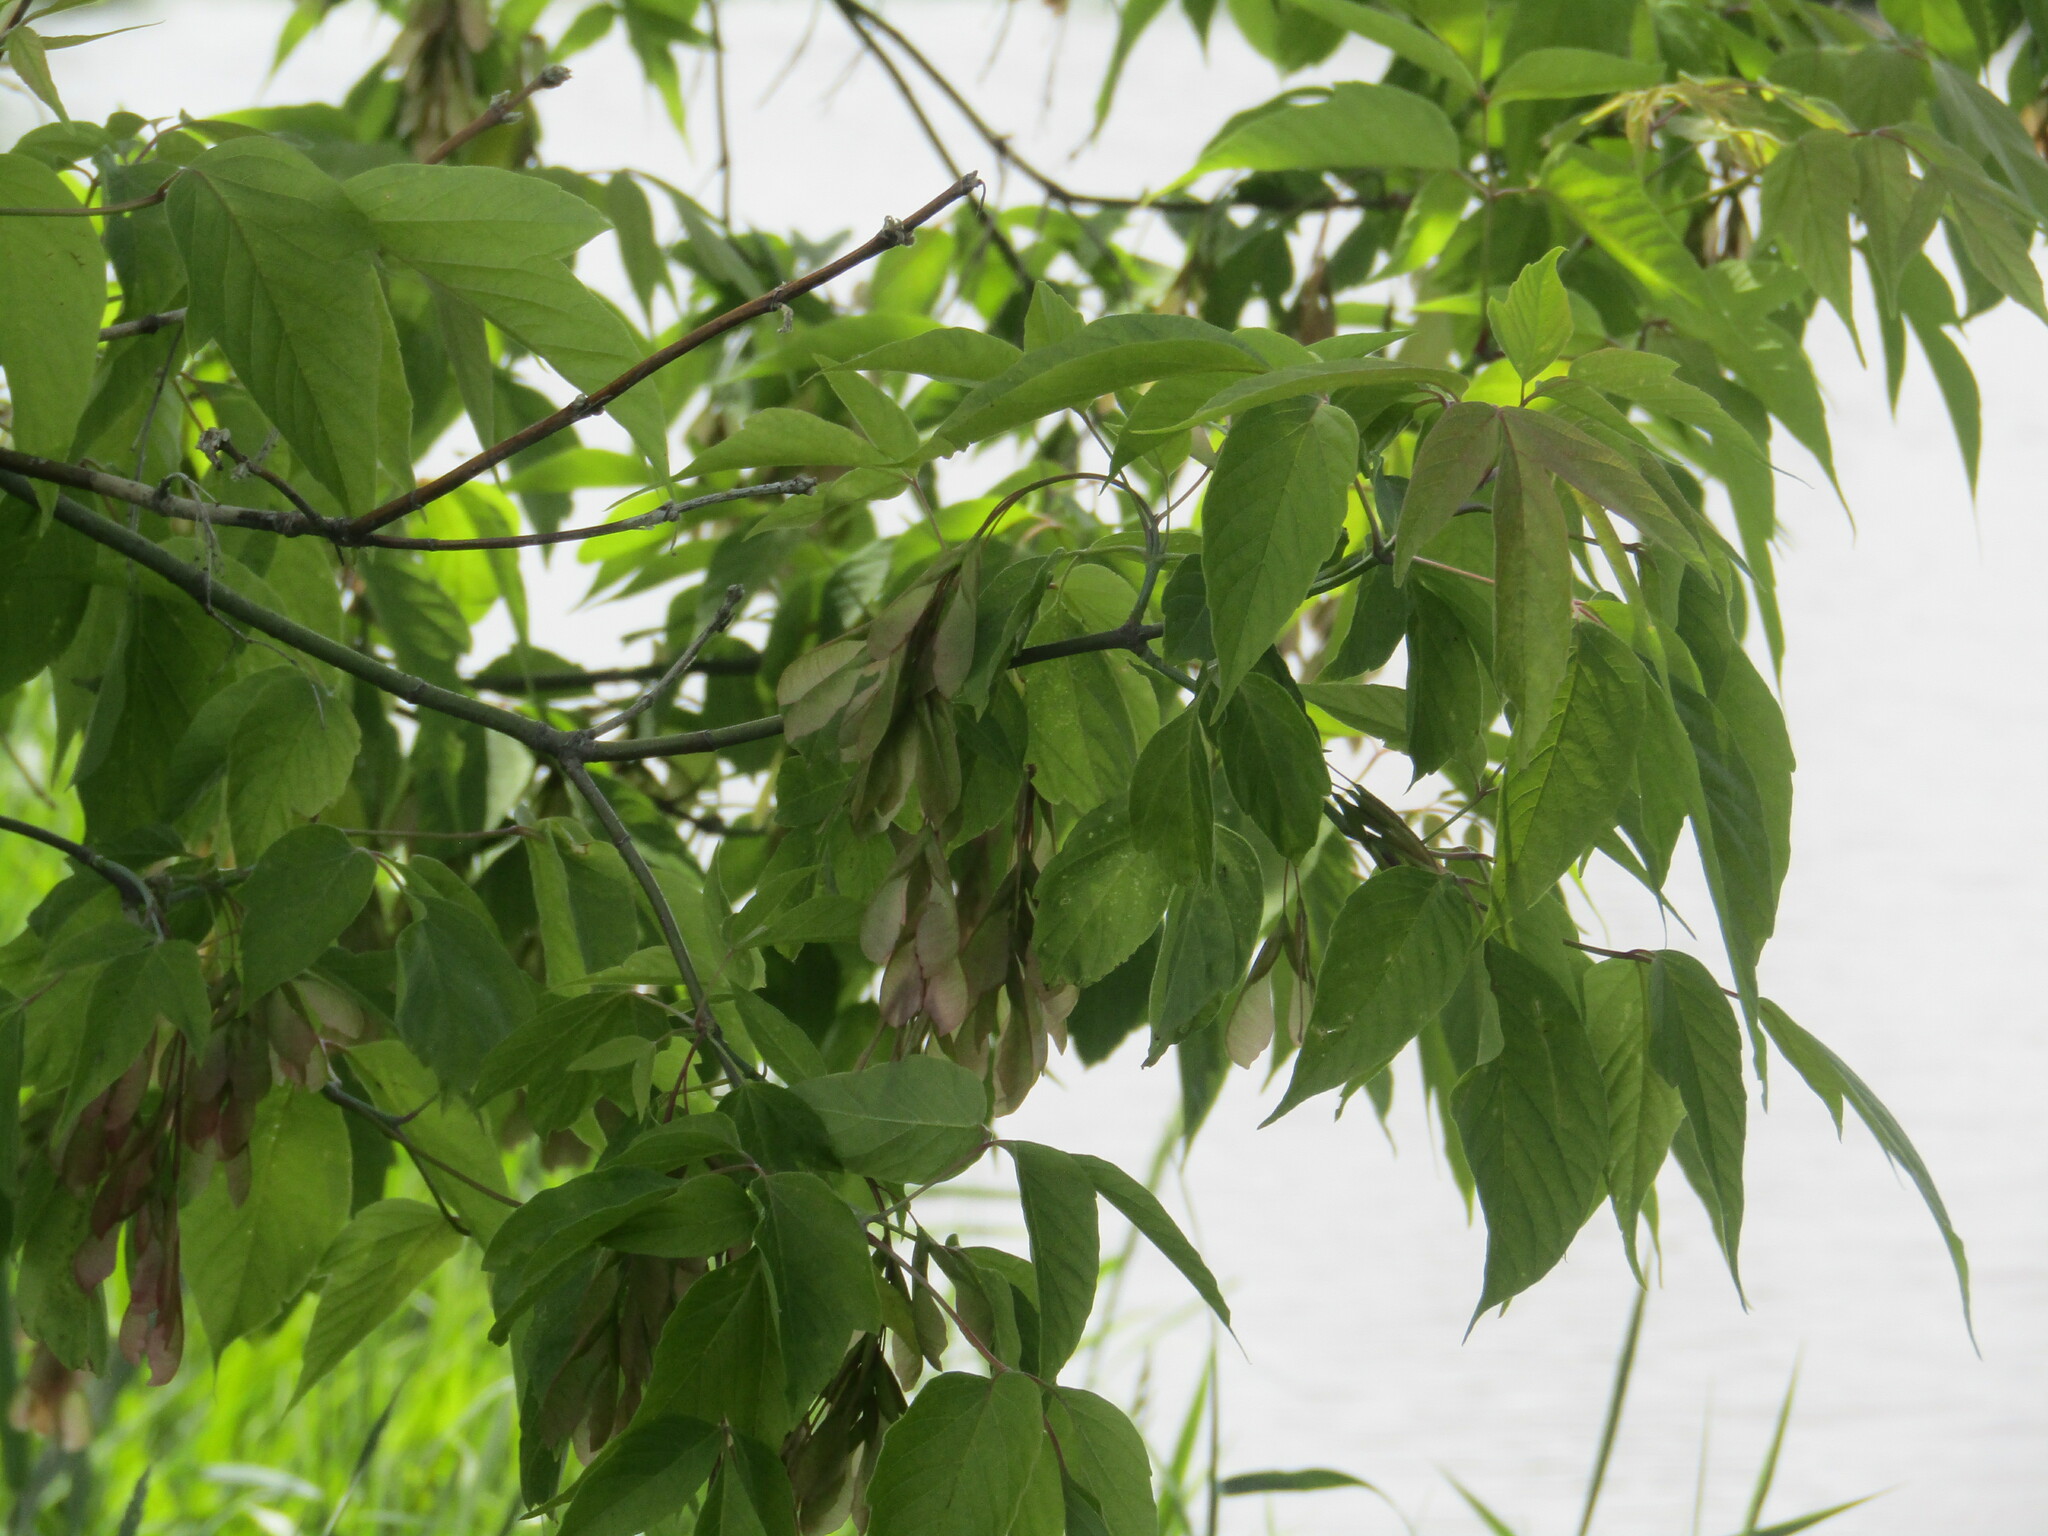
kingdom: Plantae
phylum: Tracheophyta
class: Magnoliopsida
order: Sapindales
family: Sapindaceae
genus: Acer
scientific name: Acer negundo
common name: Ashleaf maple
